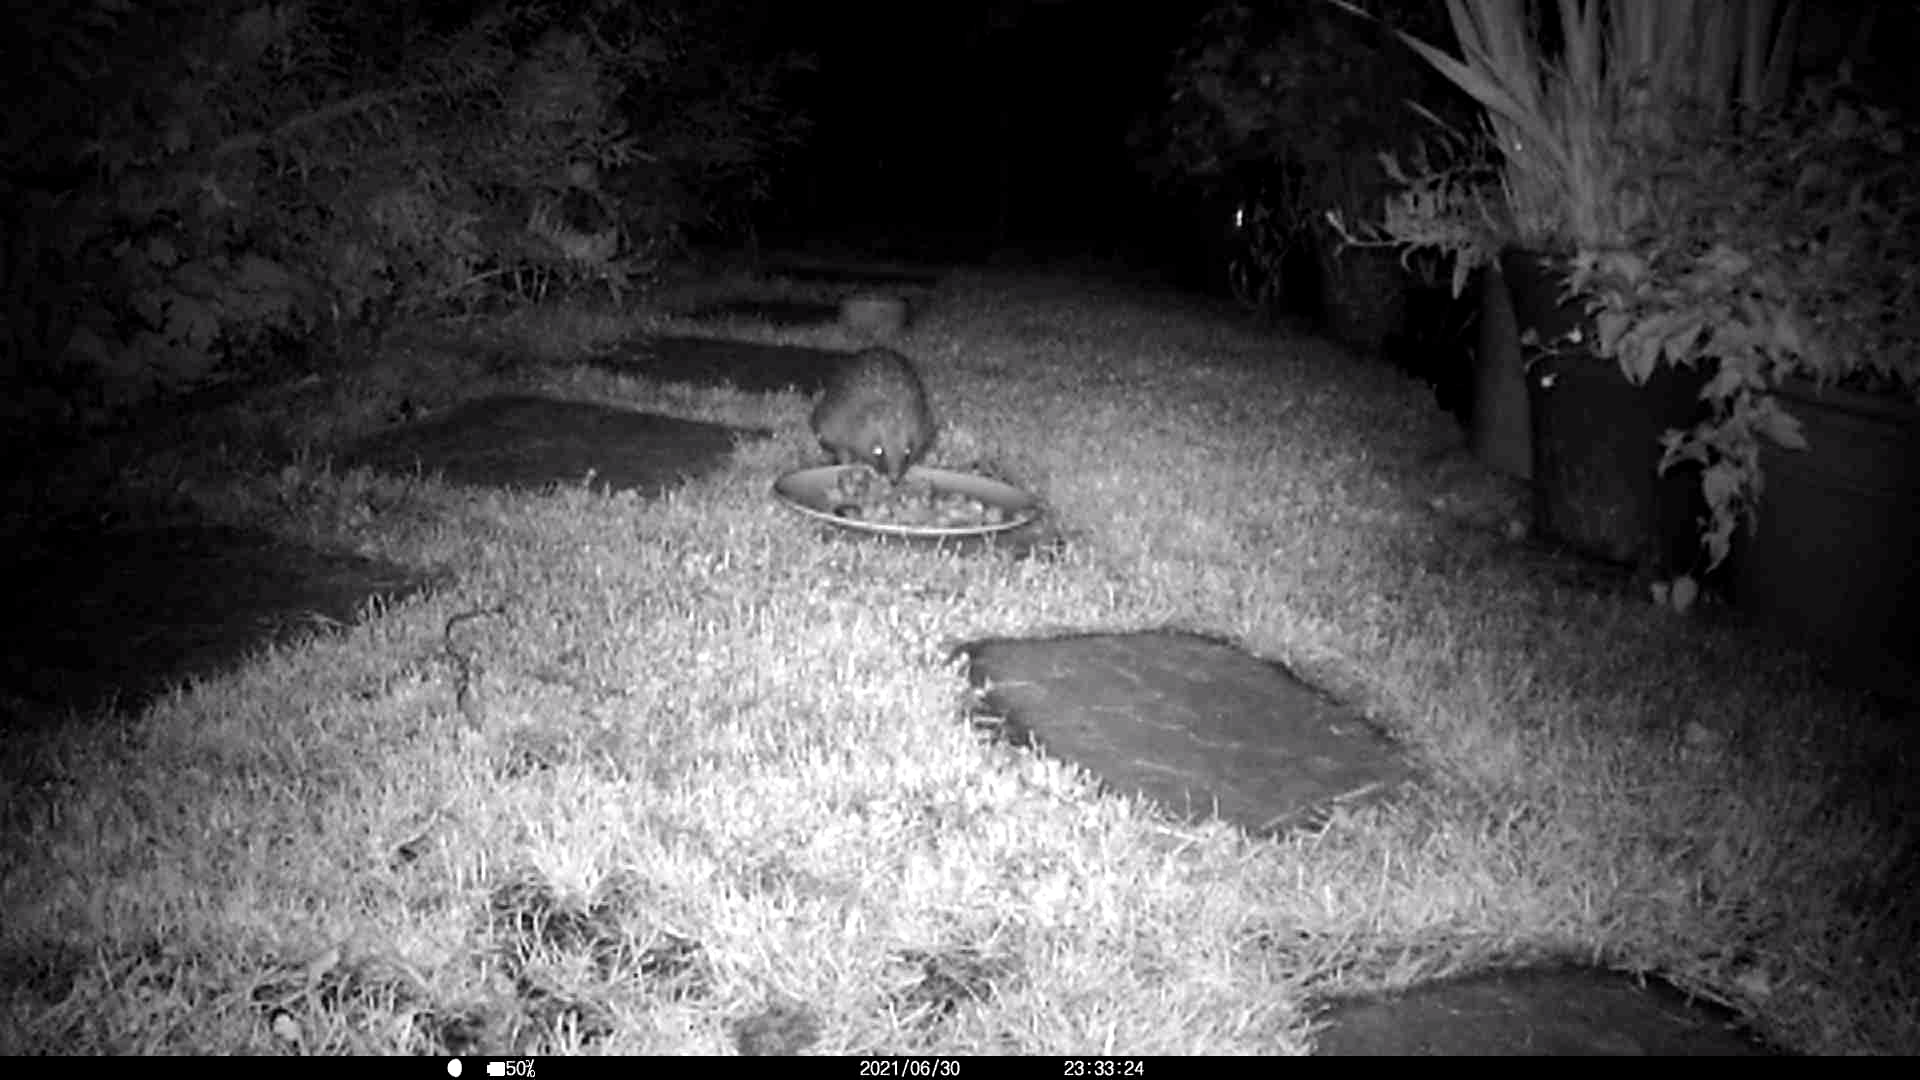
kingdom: Animalia
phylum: Chordata
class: Mammalia
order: Erinaceomorpha
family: Erinaceidae
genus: Erinaceus
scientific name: Erinaceus europaeus
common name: West european hedgehog
